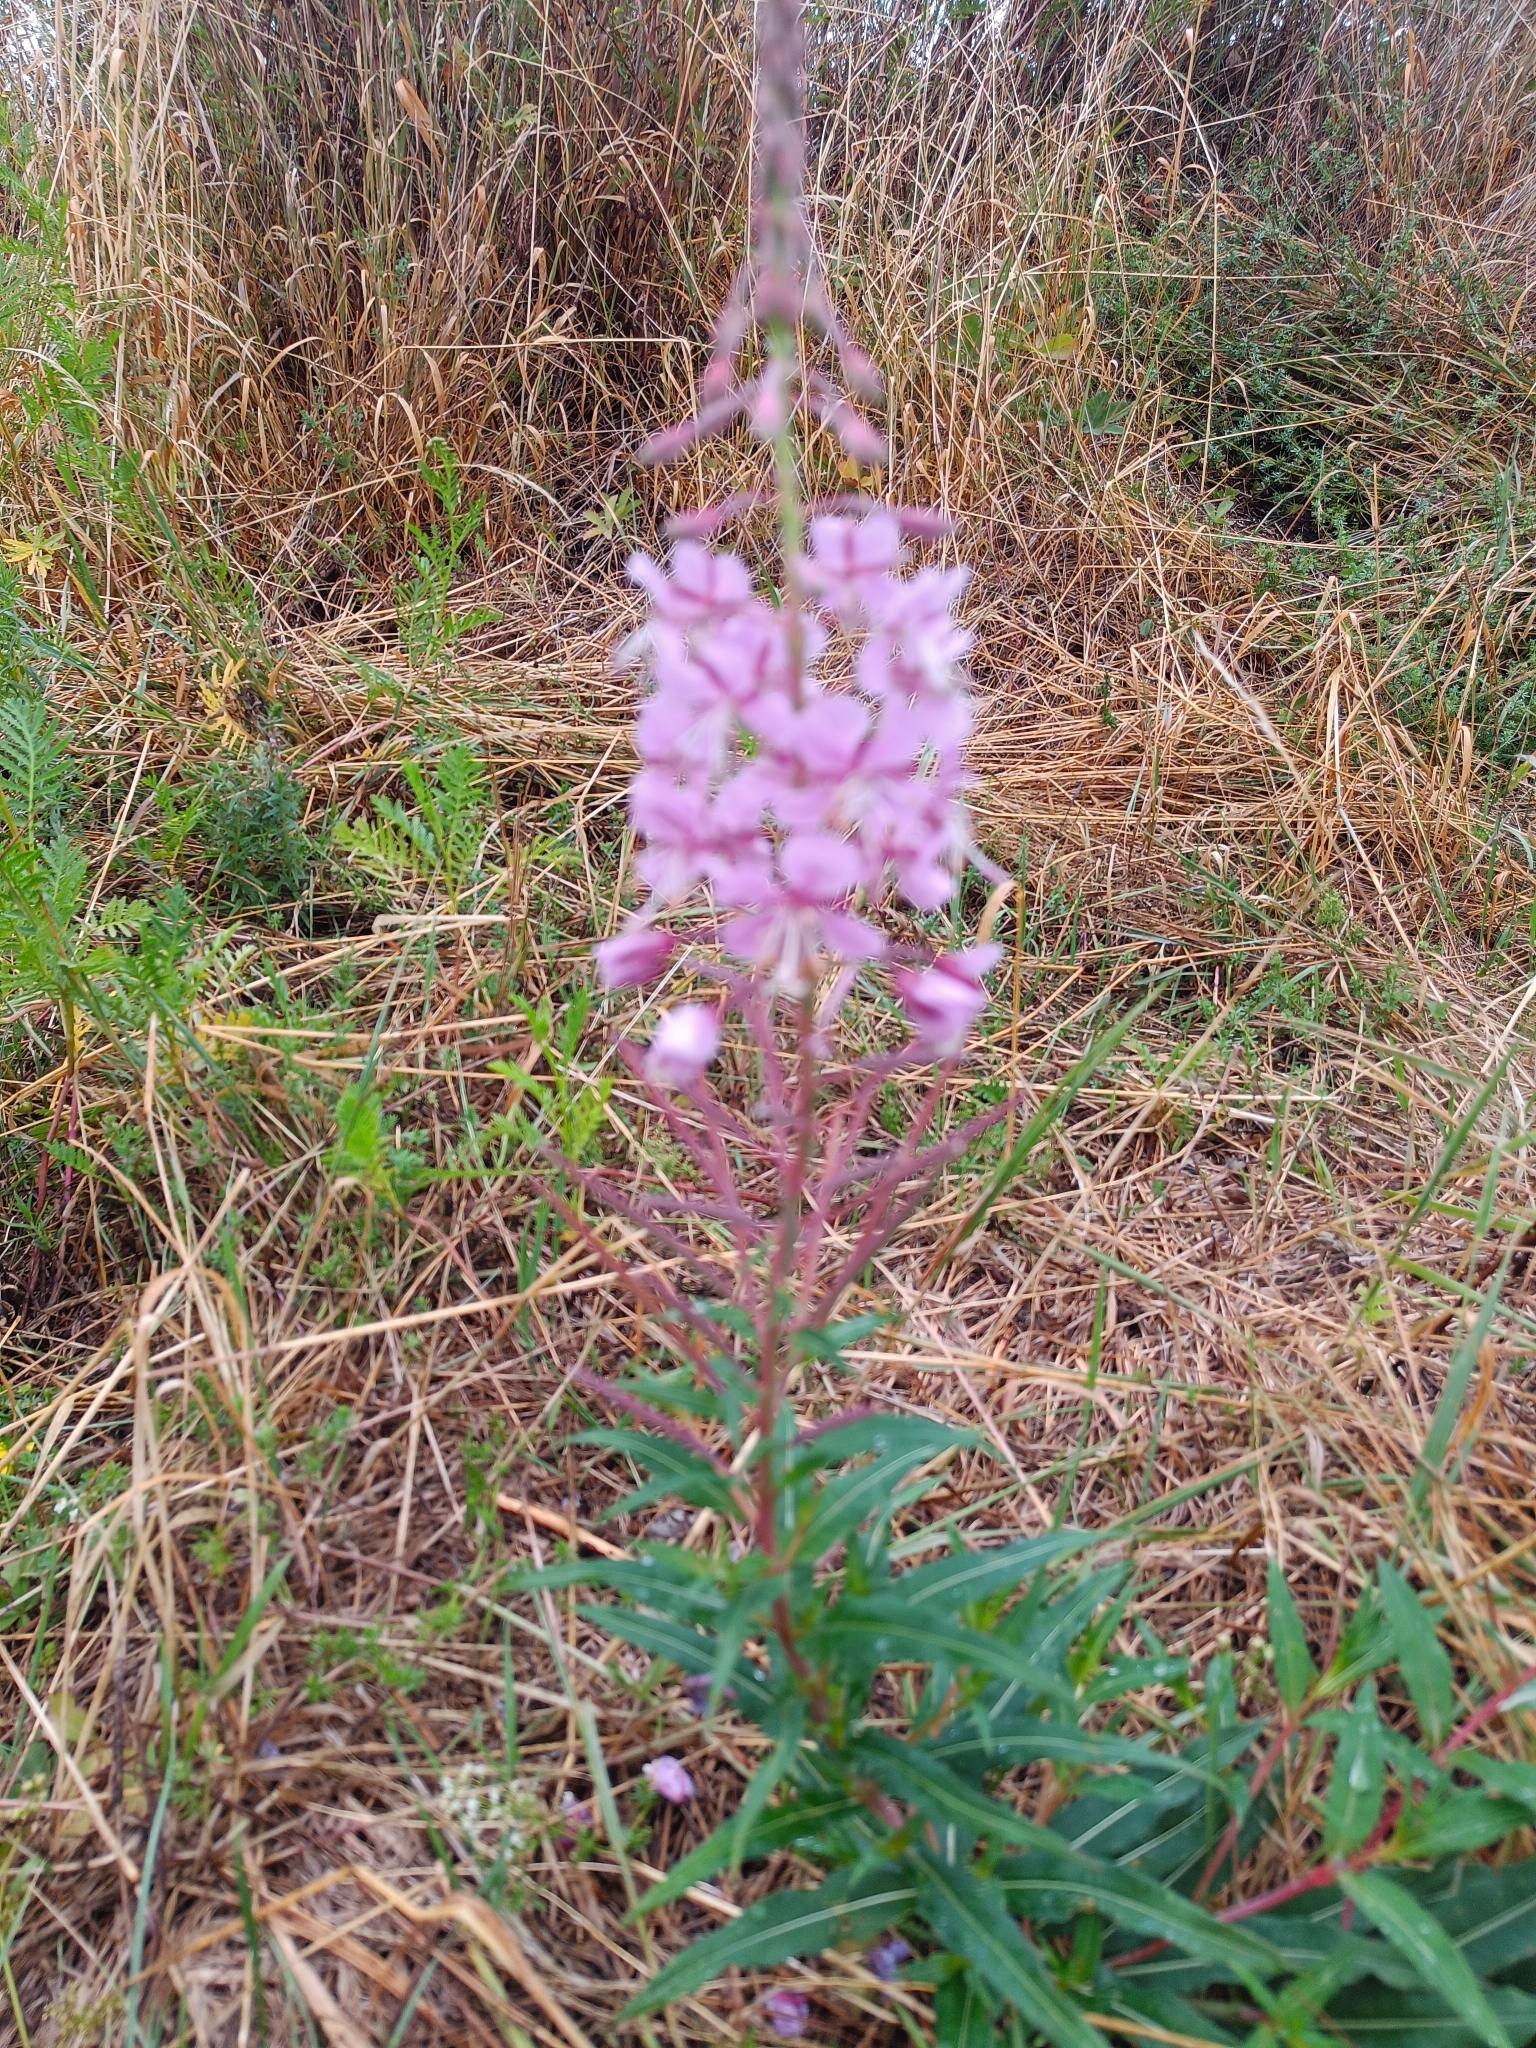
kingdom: Plantae
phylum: Tracheophyta
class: Magnoliopsida
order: Myrtales
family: Onagraceae
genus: Chamaenerion
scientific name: Chamaenerion angustifolium
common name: Fireweed
